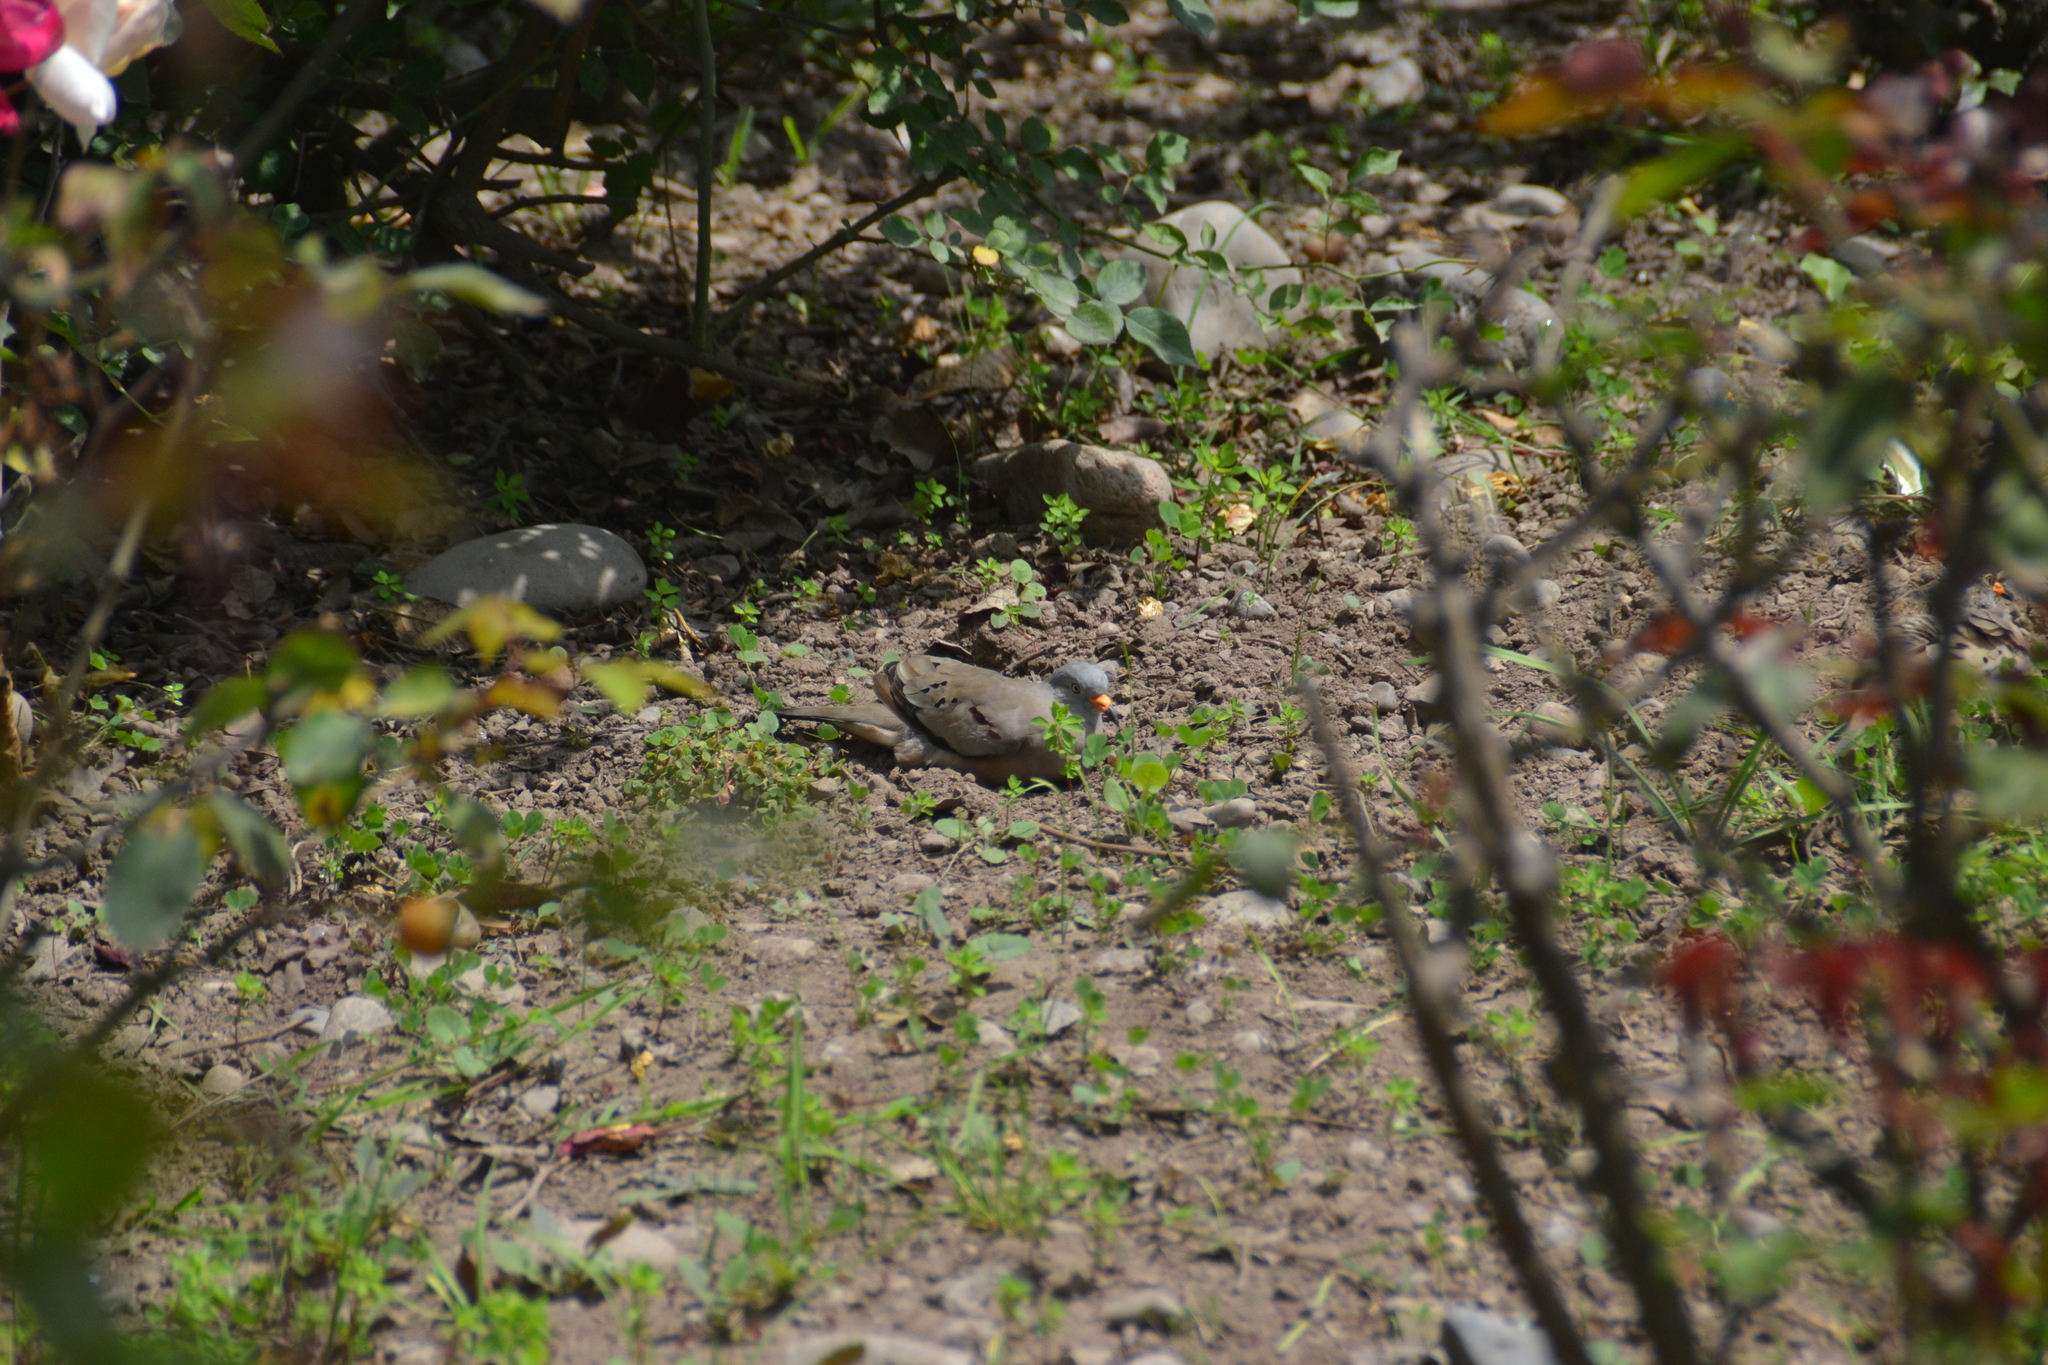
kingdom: Animalia
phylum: Chordata
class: Aves
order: Columbiformes
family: Columbidae
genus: Columbina
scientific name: Columbina cruziana
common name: Croaking ground dove
